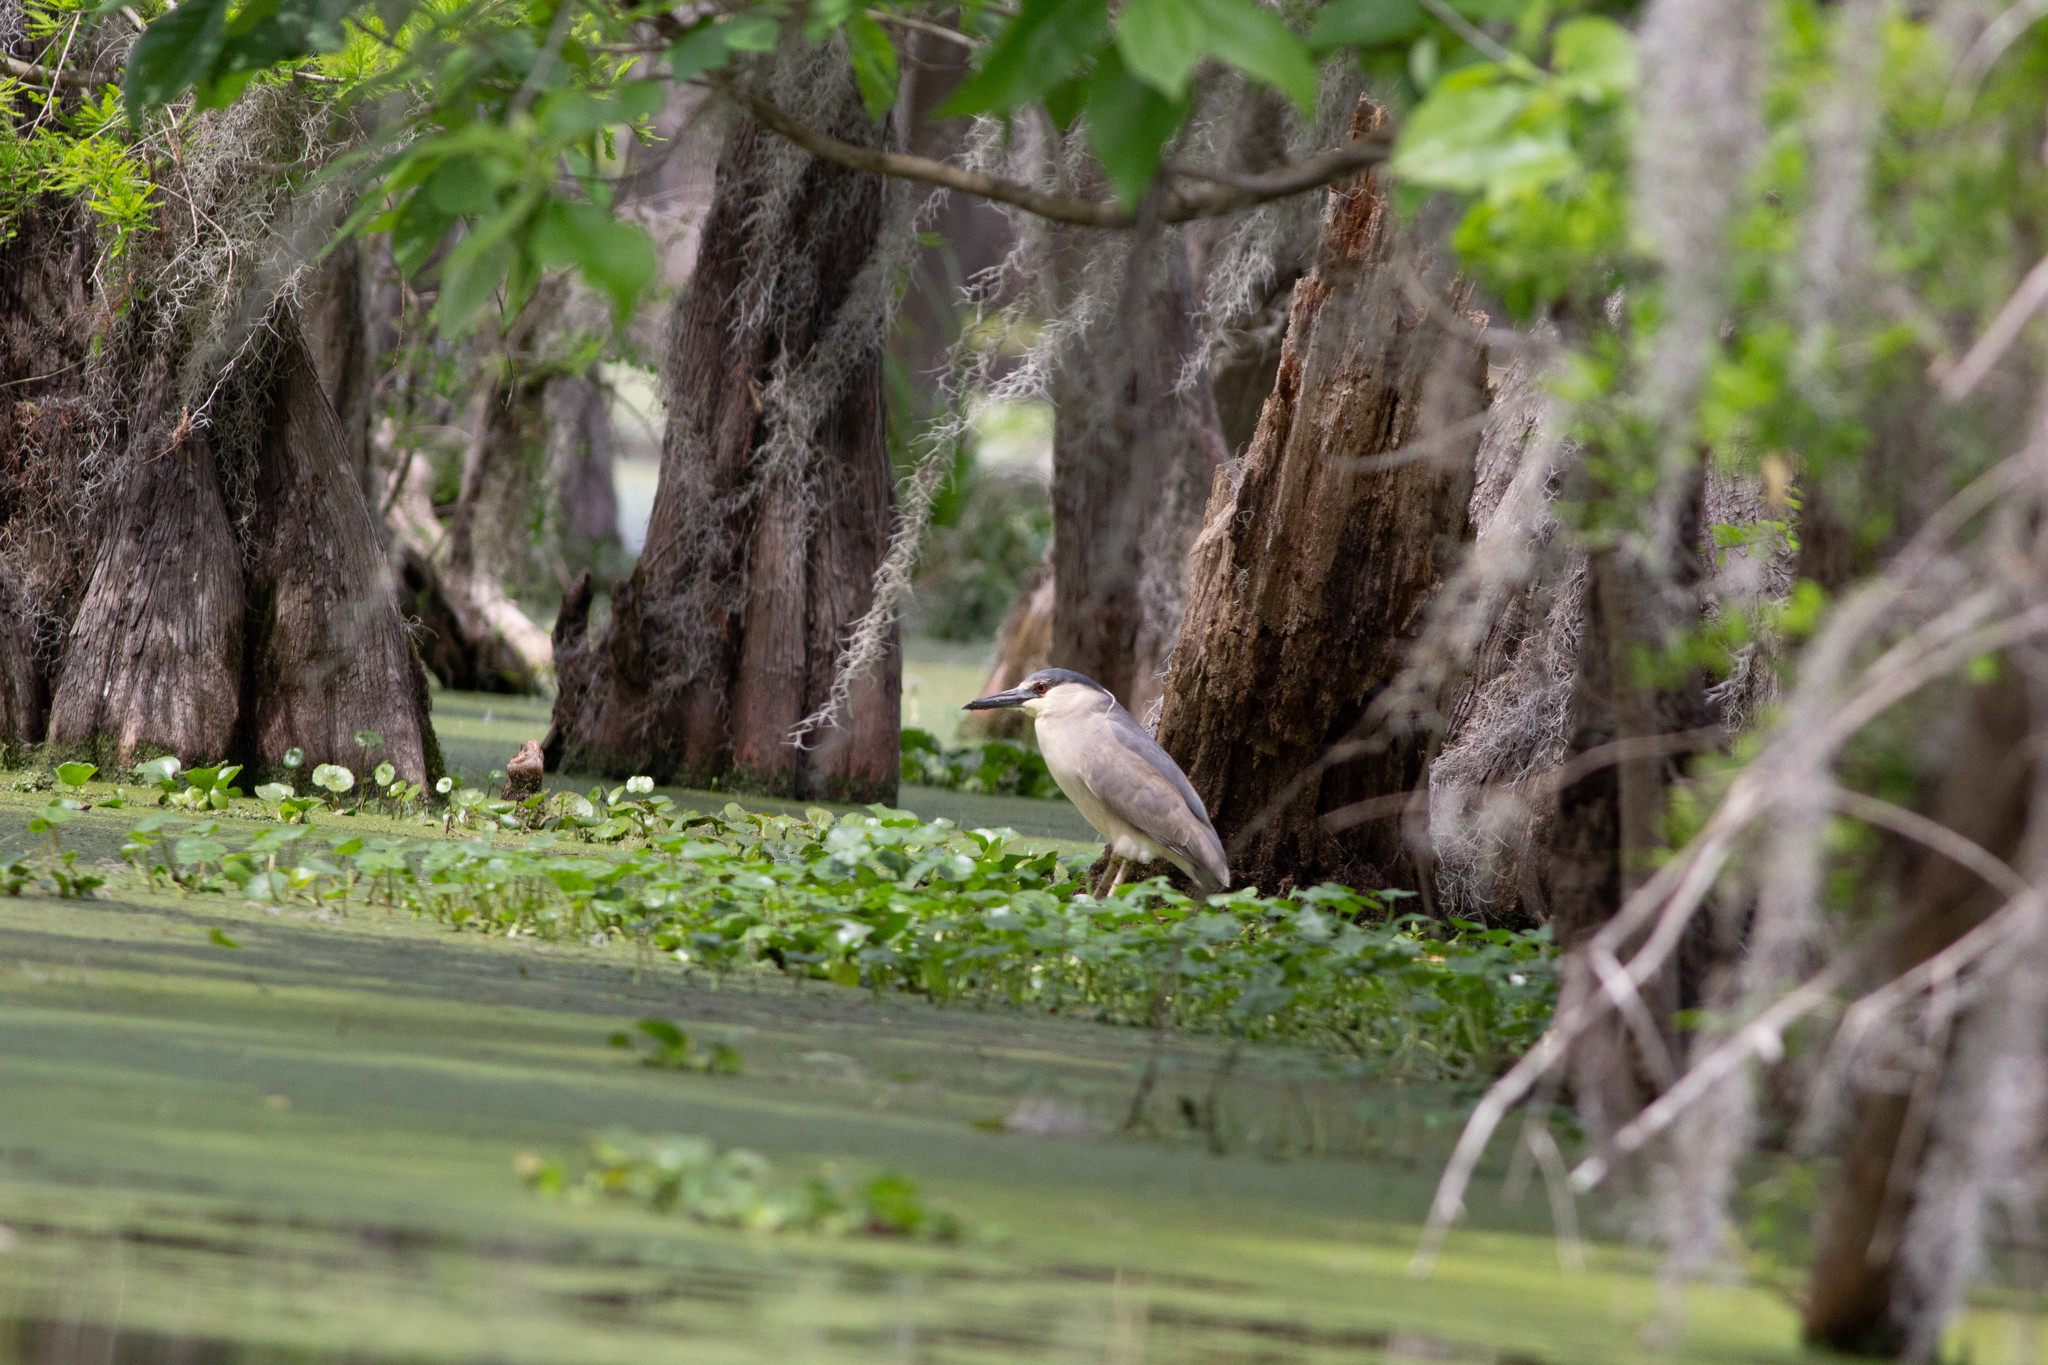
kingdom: Animalia
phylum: Chordata
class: Aves
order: Pelecaniformes
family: Ardeidae
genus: Nycticorax
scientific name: Nycticorax nycticorax
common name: Black-crowned night heron
